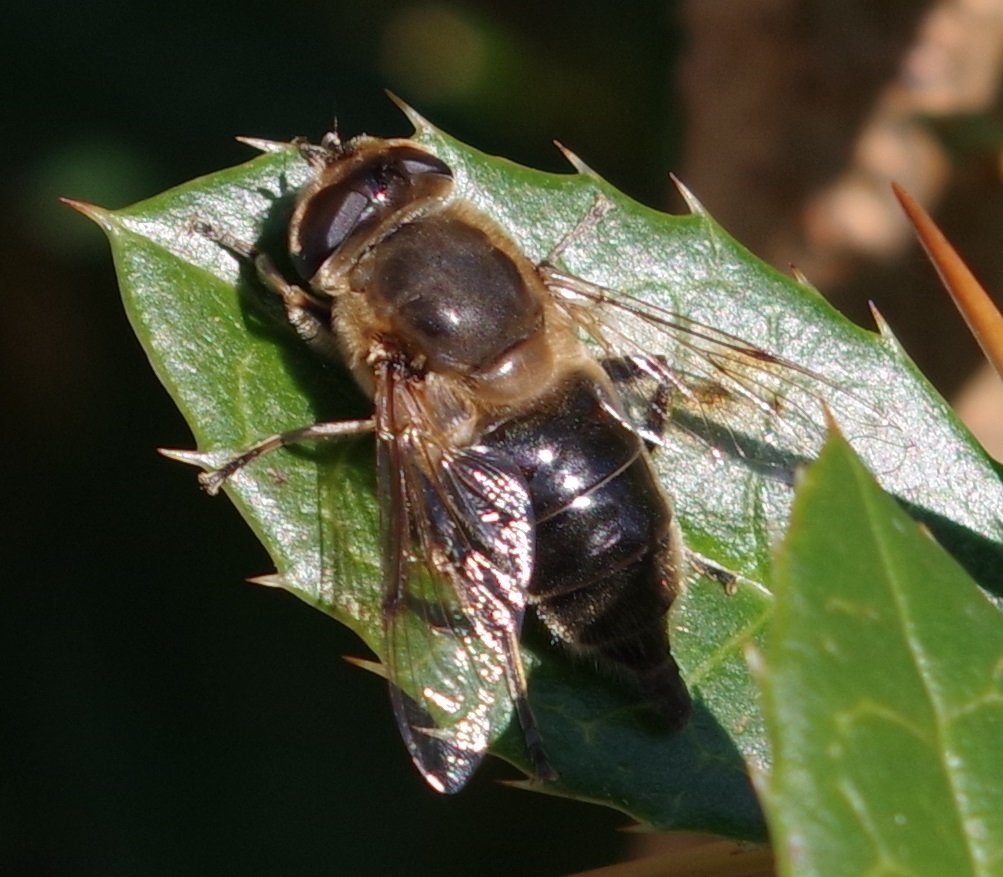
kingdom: Animalia
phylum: Arthropoda
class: Insecta
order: Diptera
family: Syrphidae
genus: Eristalis
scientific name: Eristalis tenax
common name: Drone fly
